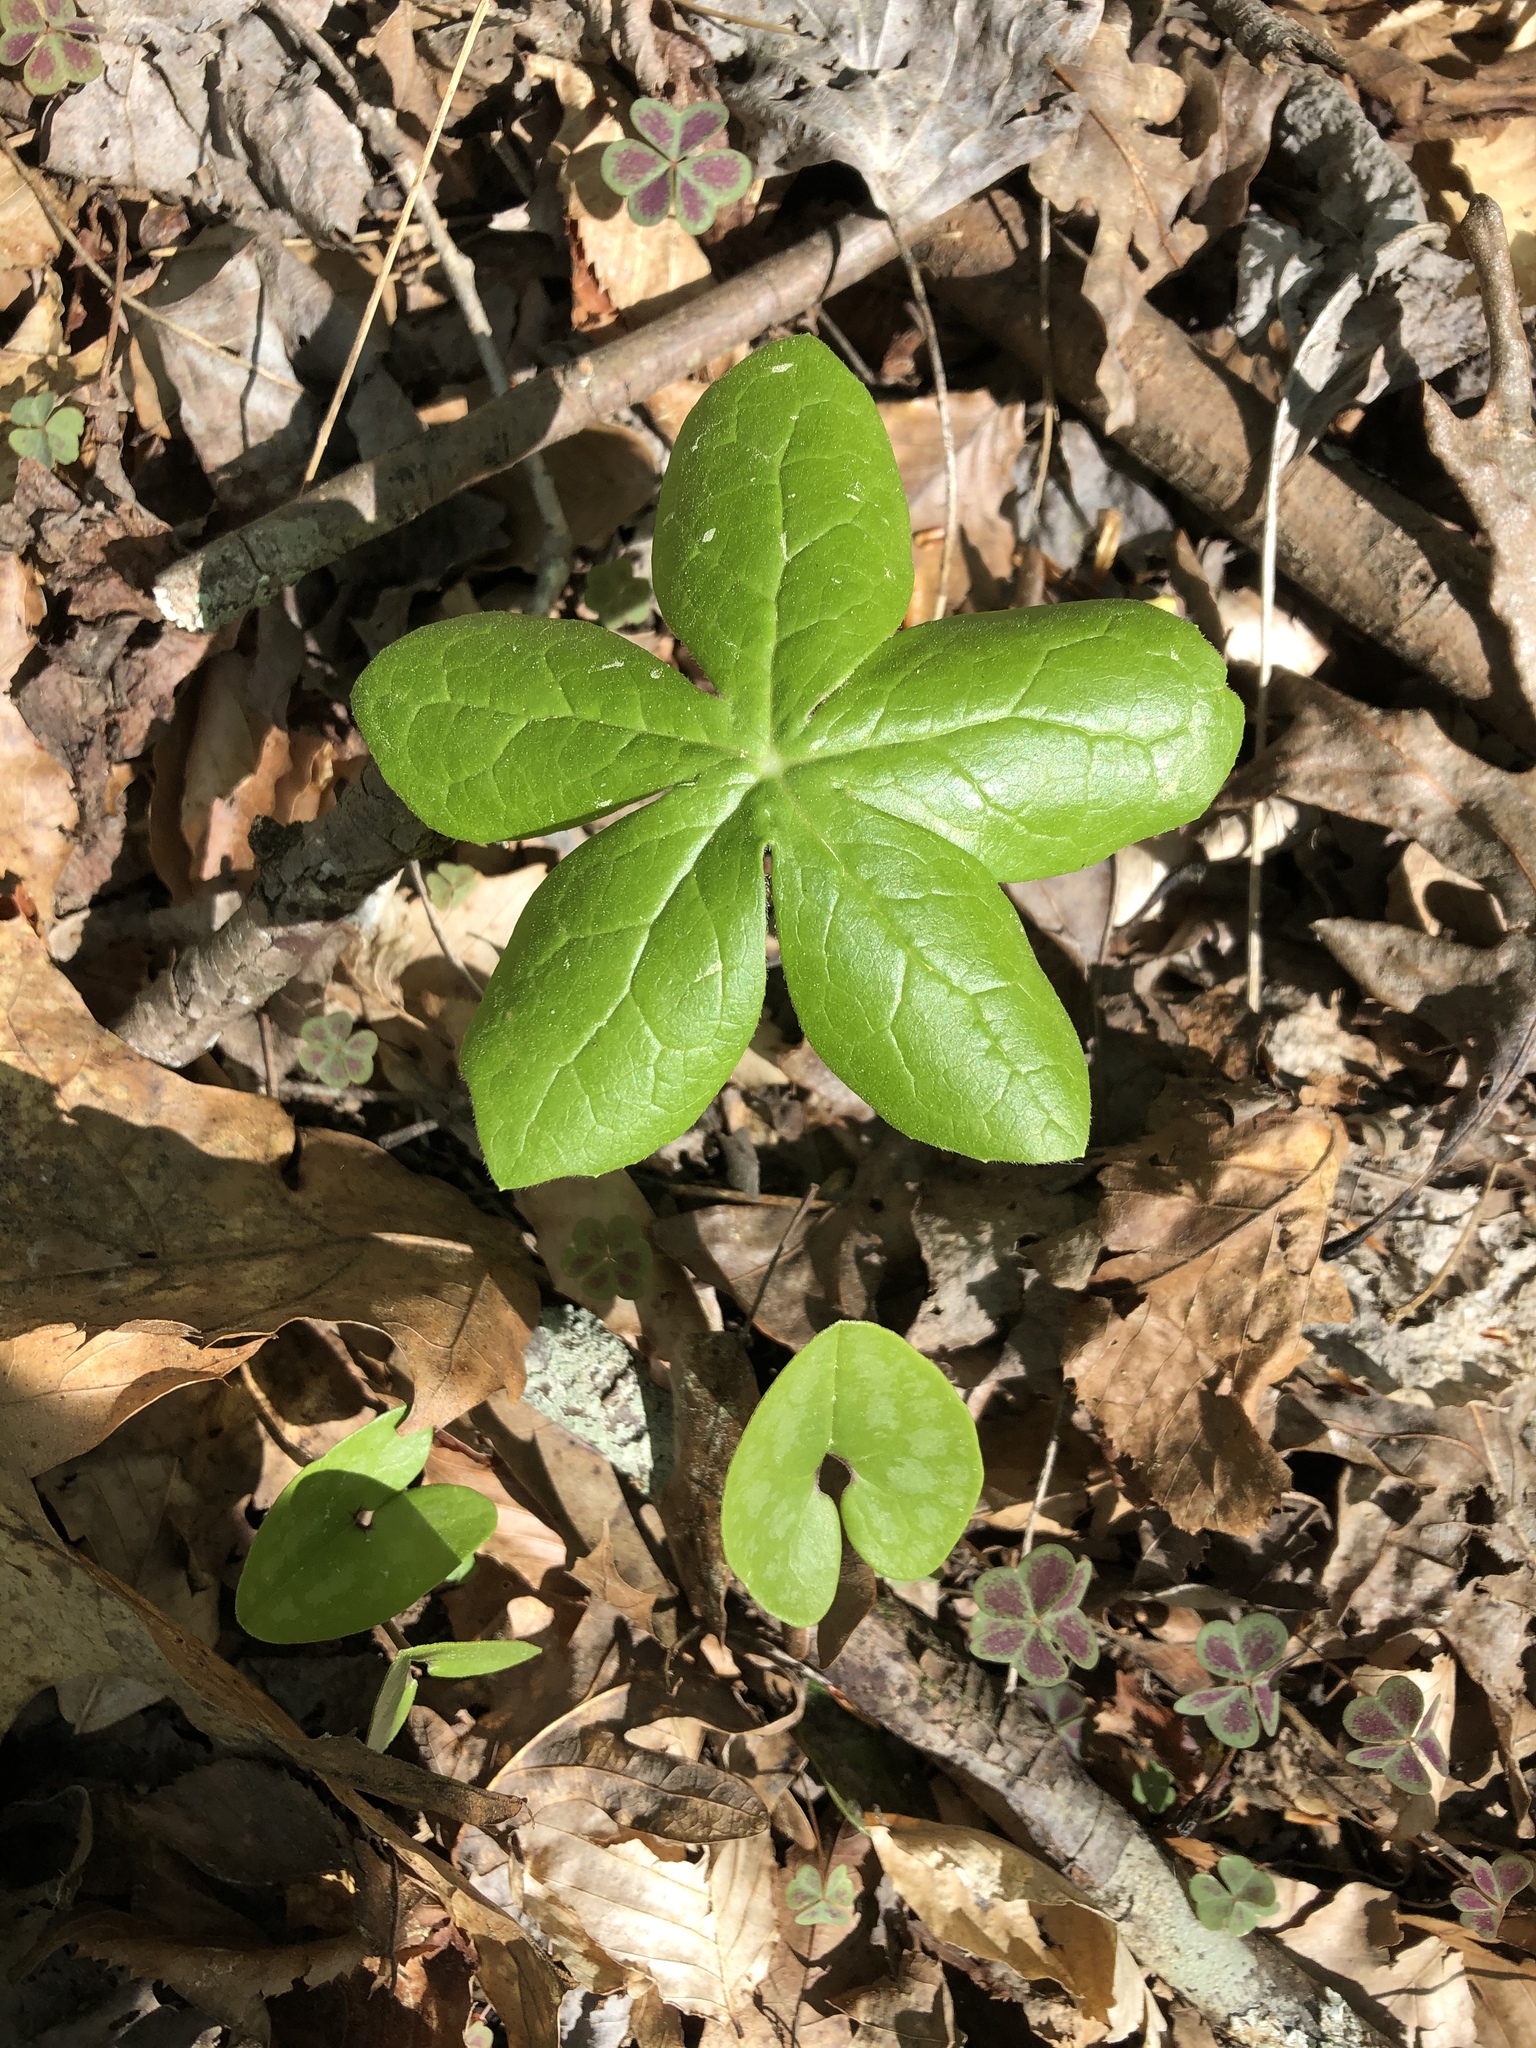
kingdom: Plantae
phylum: Tracheophyta
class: Magnoliopsida
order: Ranunculales
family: Berberidaceae
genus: Podophyllum
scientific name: Podophyllum peltatum
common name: Wild mandrake
